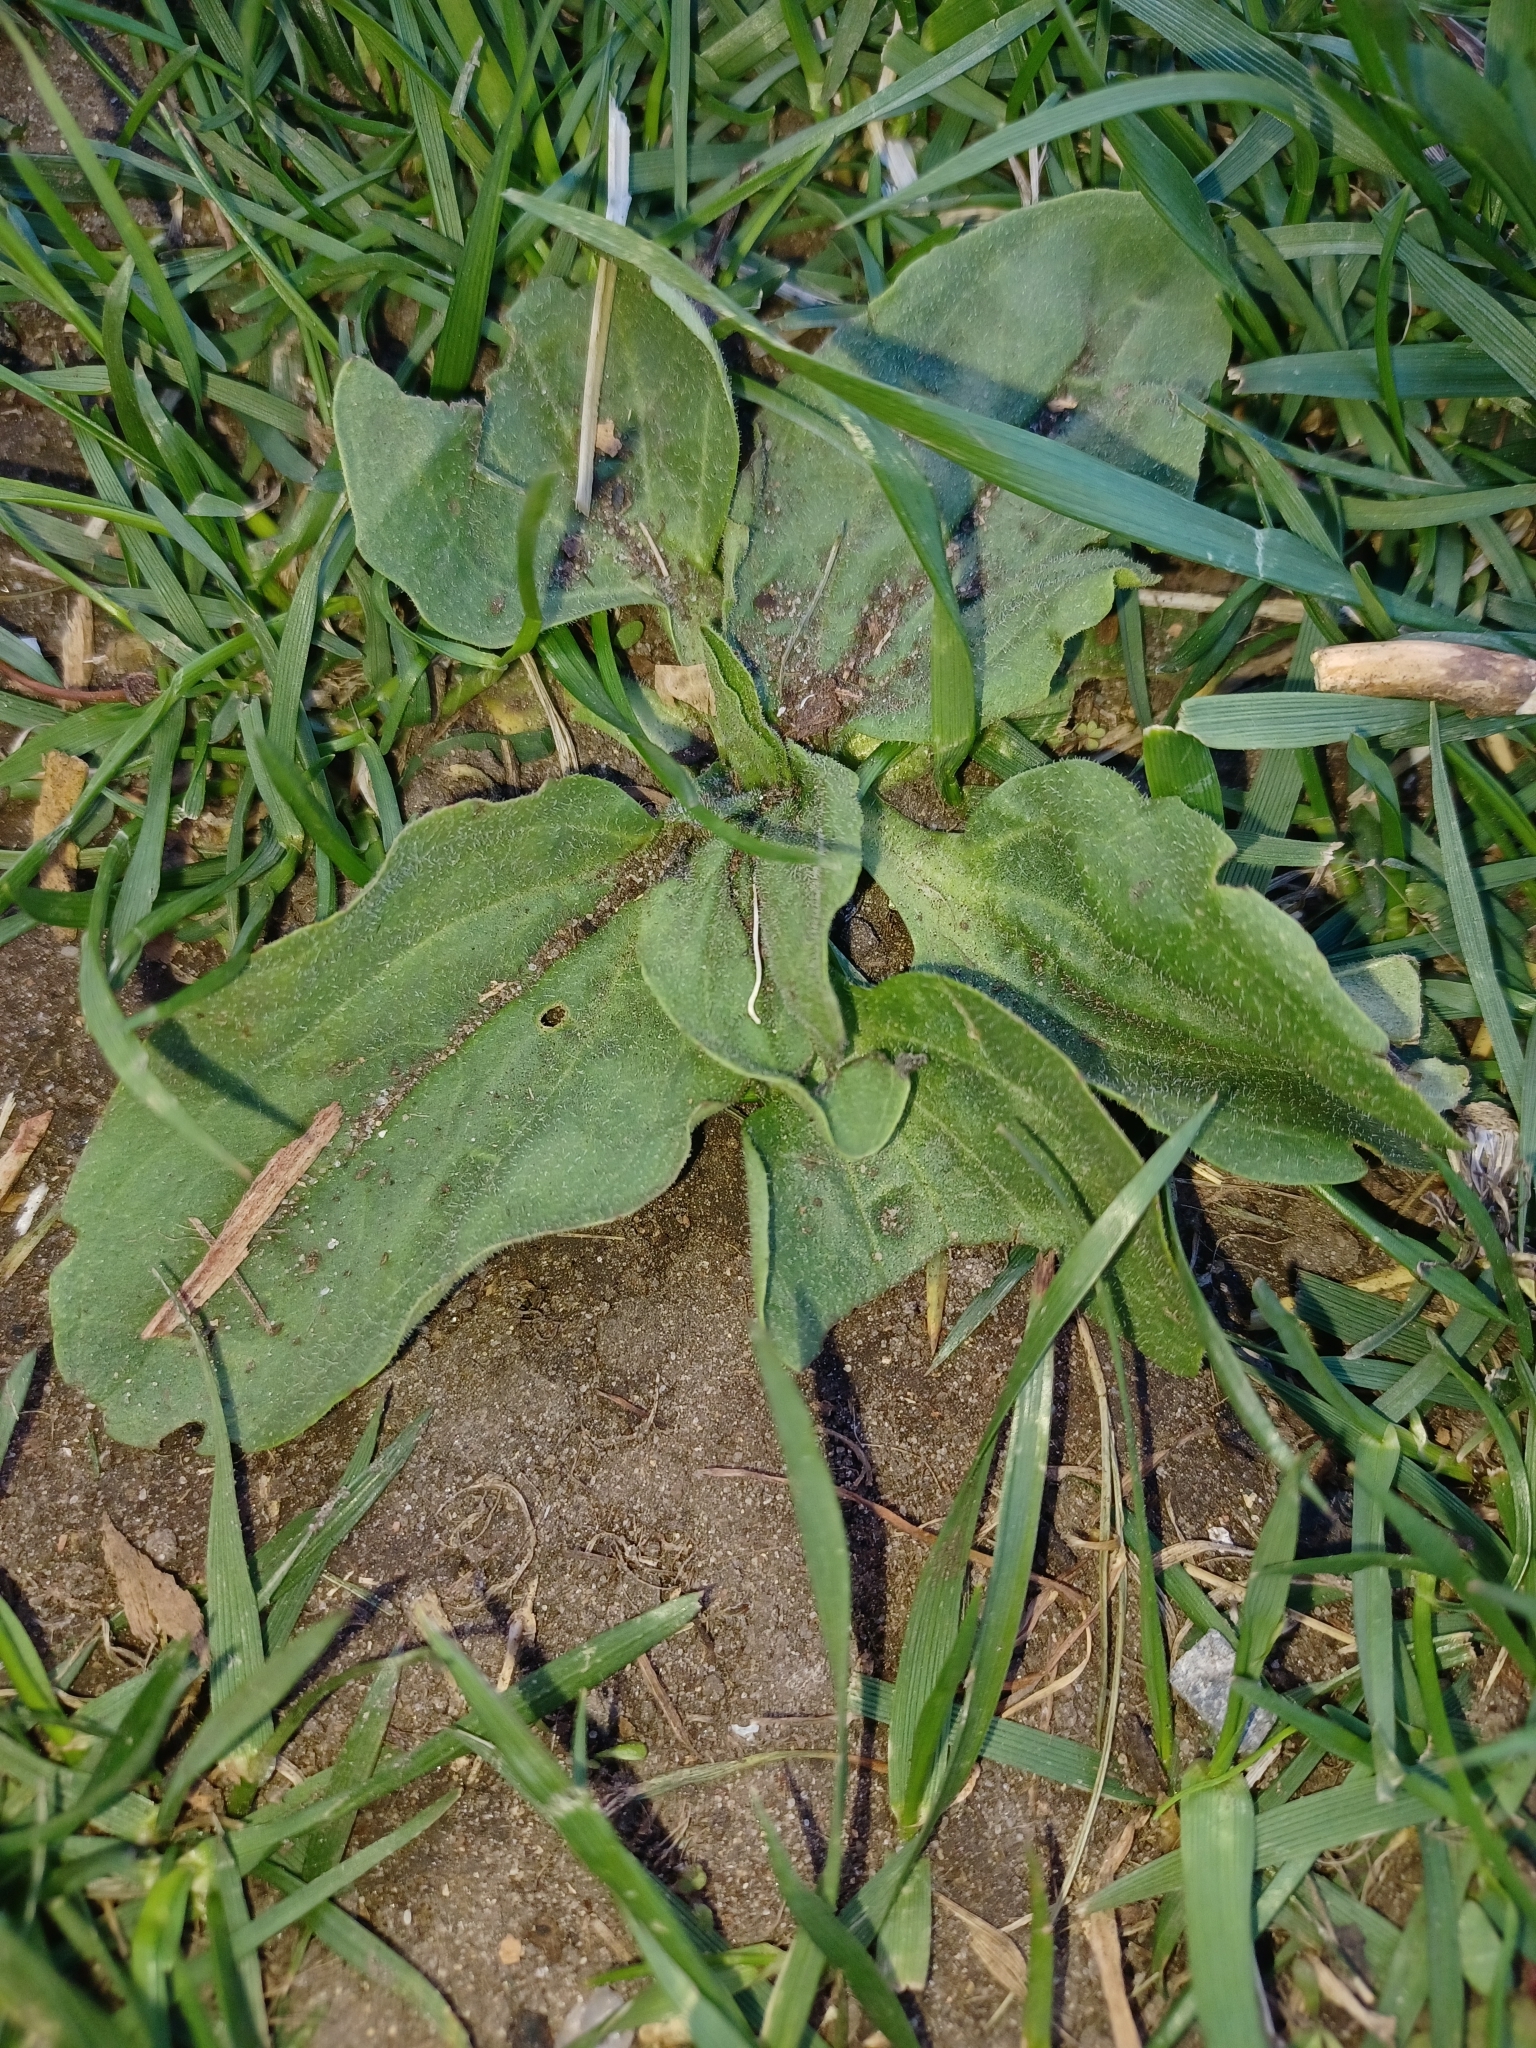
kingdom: Plantae
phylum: Tracheophyta
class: Magnoliopsida
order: Lamiales
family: Plantaginaceae
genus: Plantago
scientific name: Plantago major
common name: Common plantain
